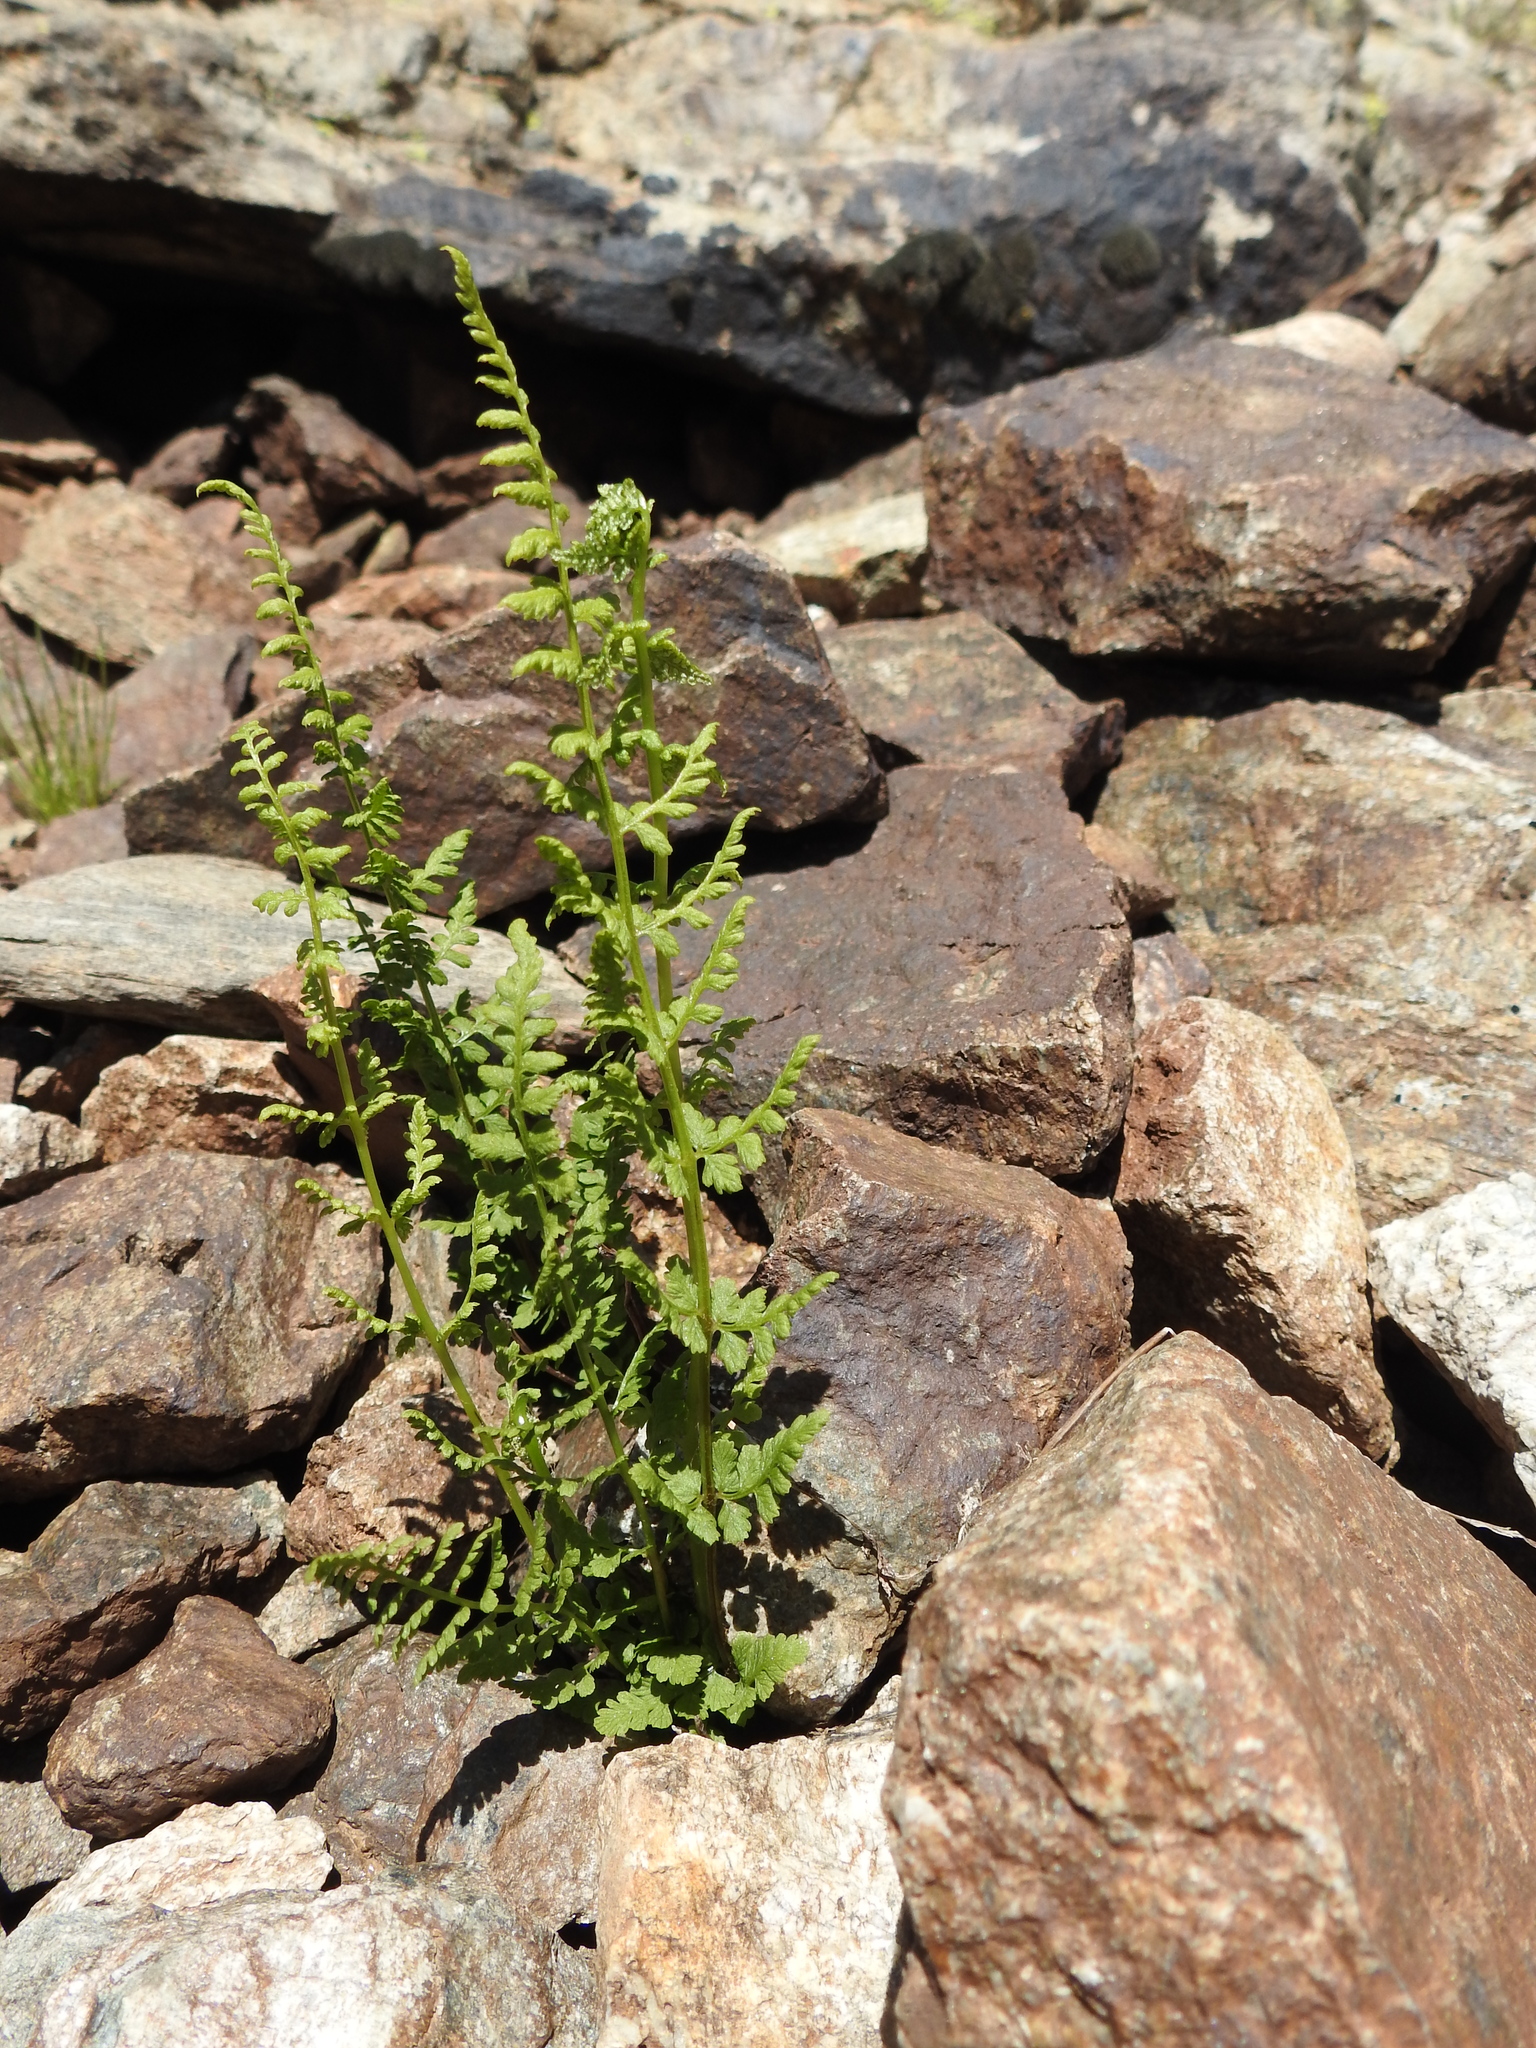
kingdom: Plantae
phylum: Tracheophyta
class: Polypodiopsida
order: Polypodiales
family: Cystopteridaceae
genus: Cystopteris
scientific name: Cystopteris fragilis
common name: Brittle bladder fern
